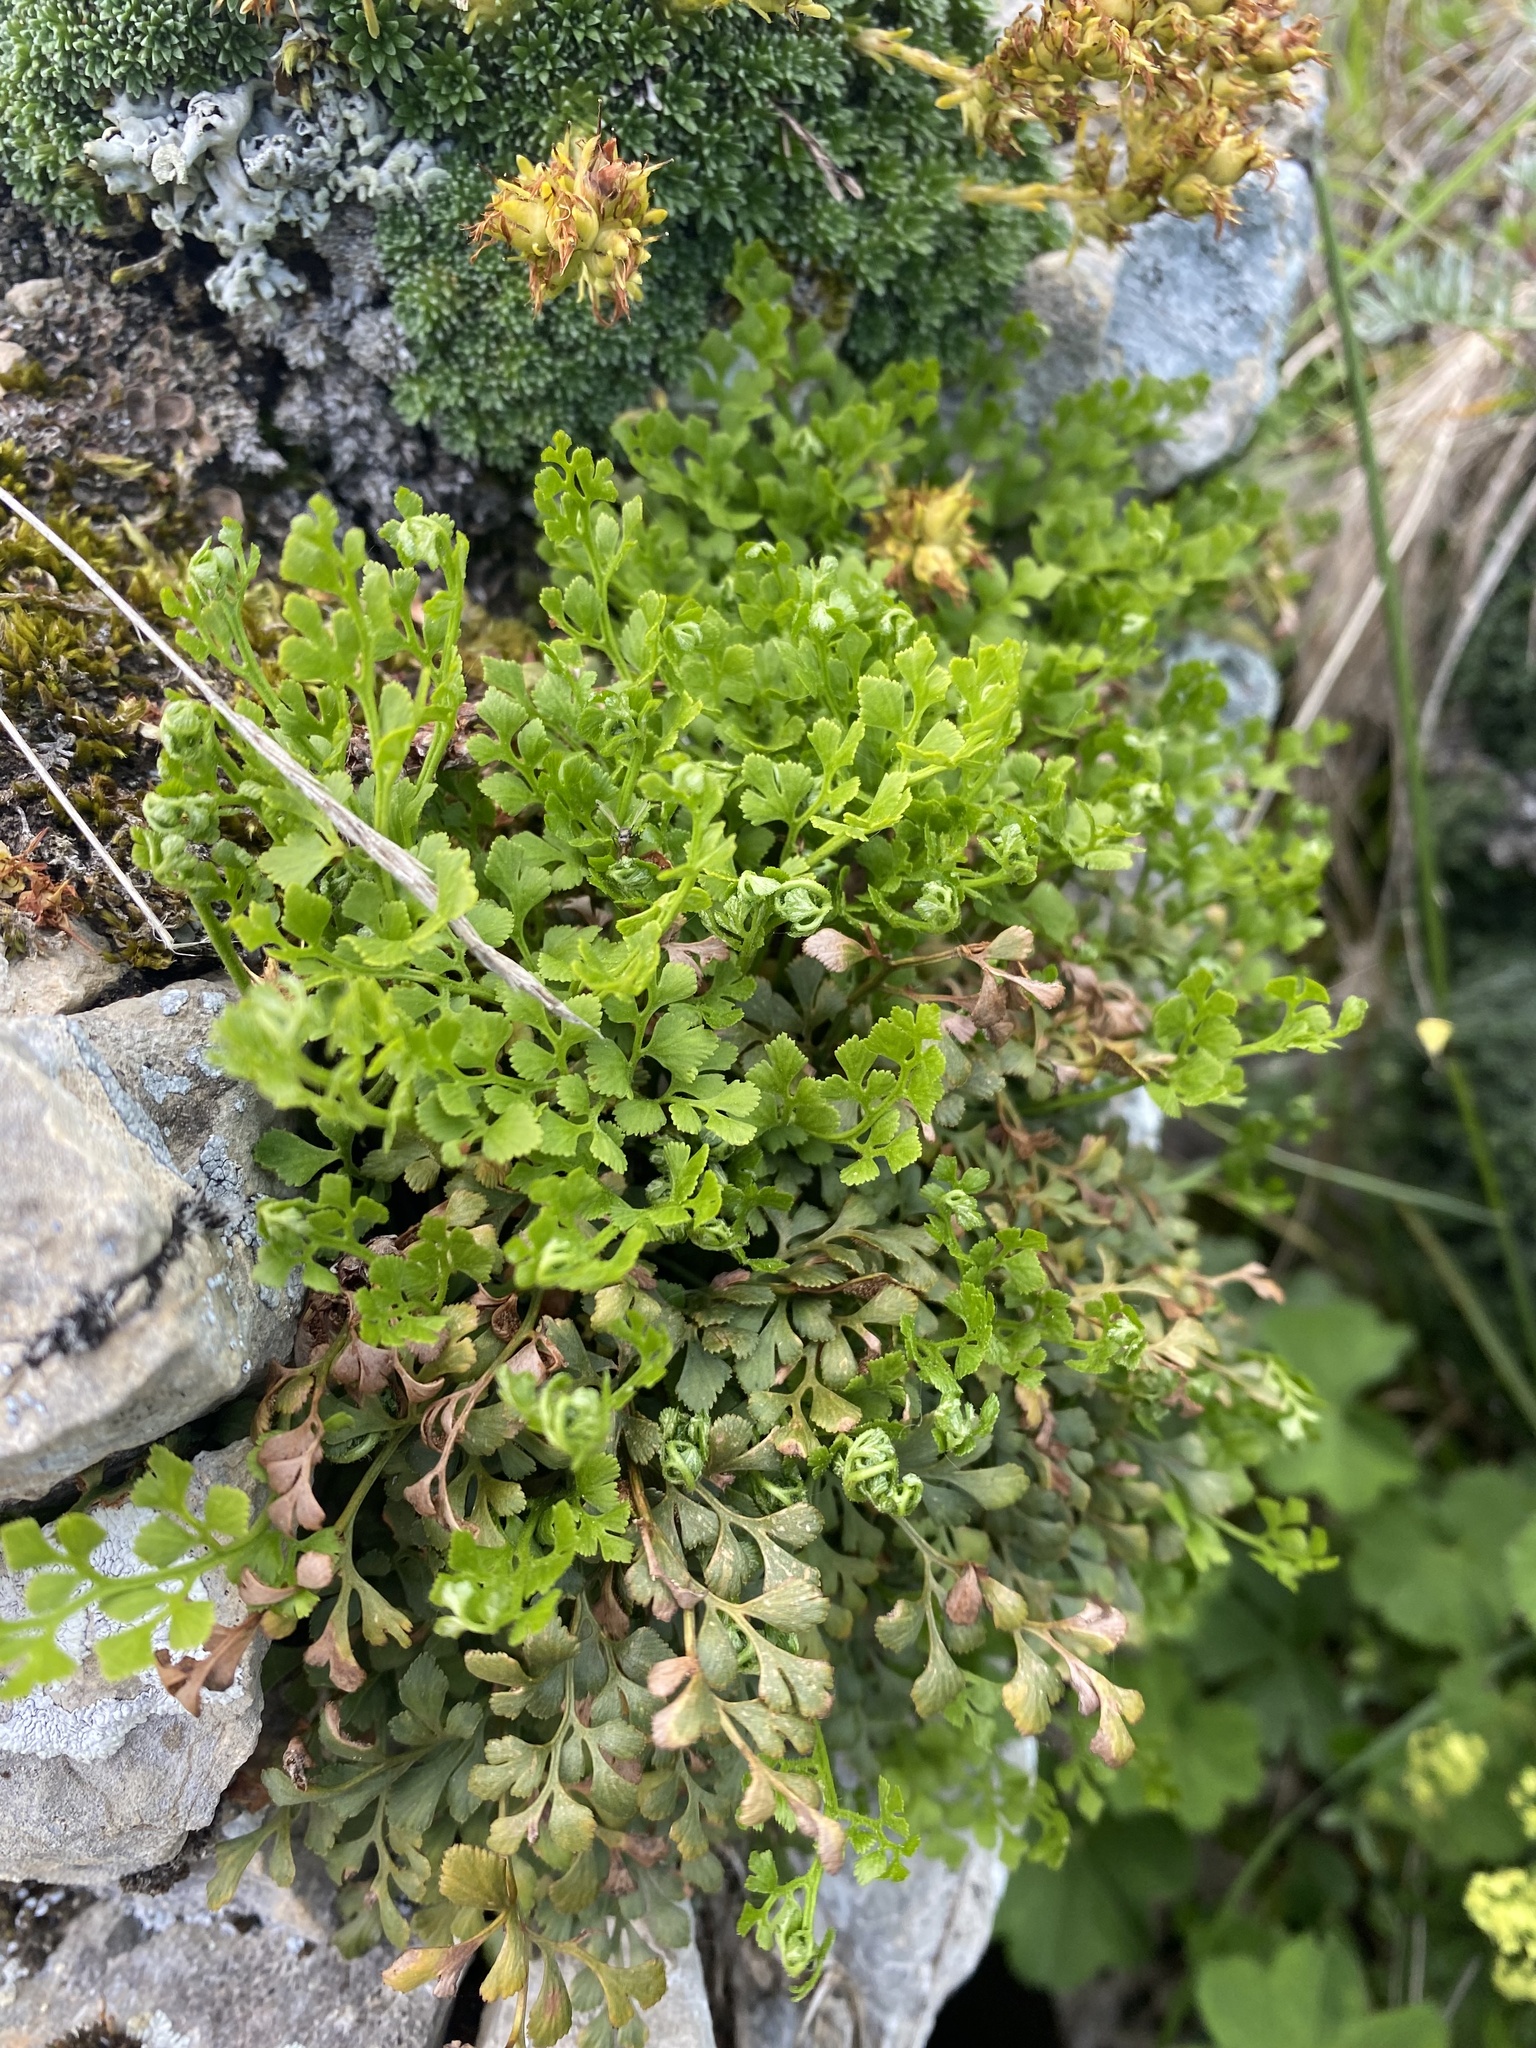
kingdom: Plantae
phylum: Tracheophyta
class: Polypodiopsida
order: Polypodiales
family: Aspleniaceae
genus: Asplenium
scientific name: Asplenium ruta-muraria
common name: Wall-rue
